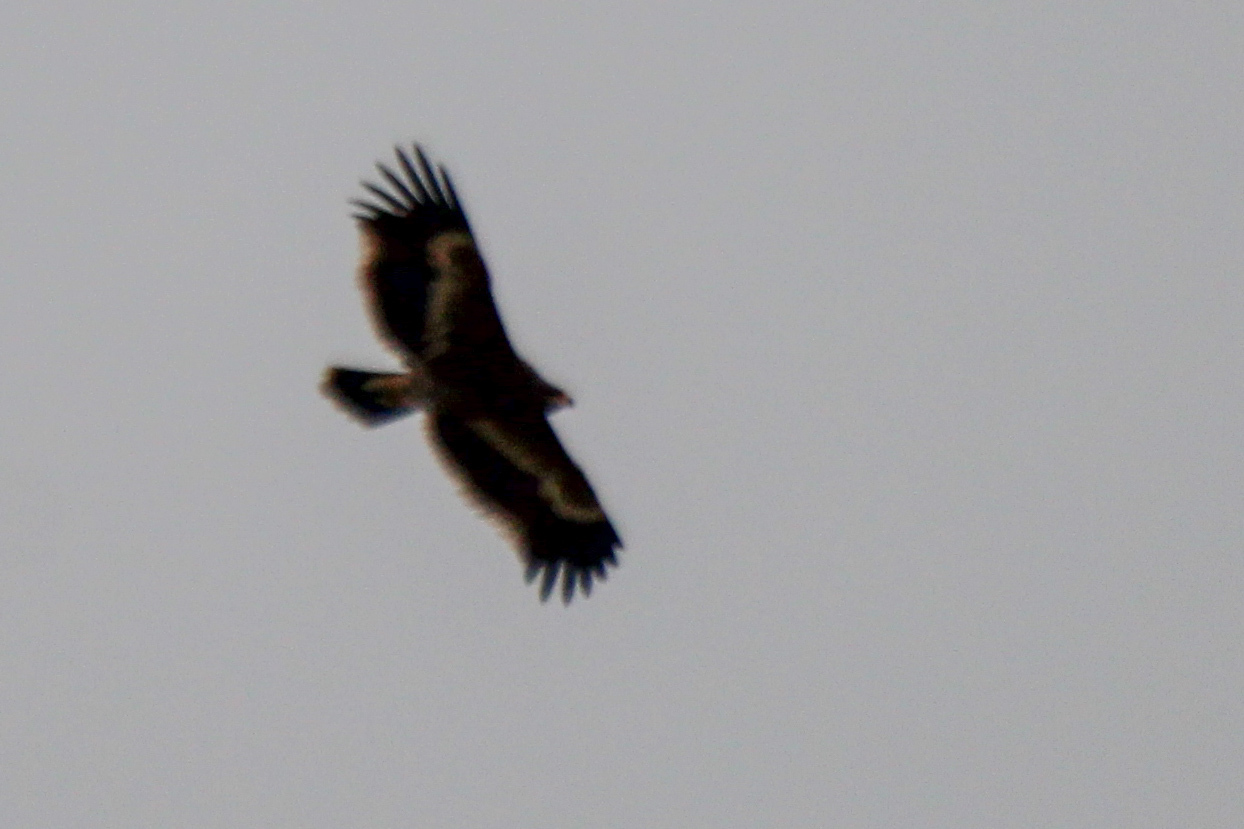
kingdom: Animalia
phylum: Chordata
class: Aves
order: Accipitriformes
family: Accipitridae
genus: Aquila
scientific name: Aquila nipalensis
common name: Steppe eagle
